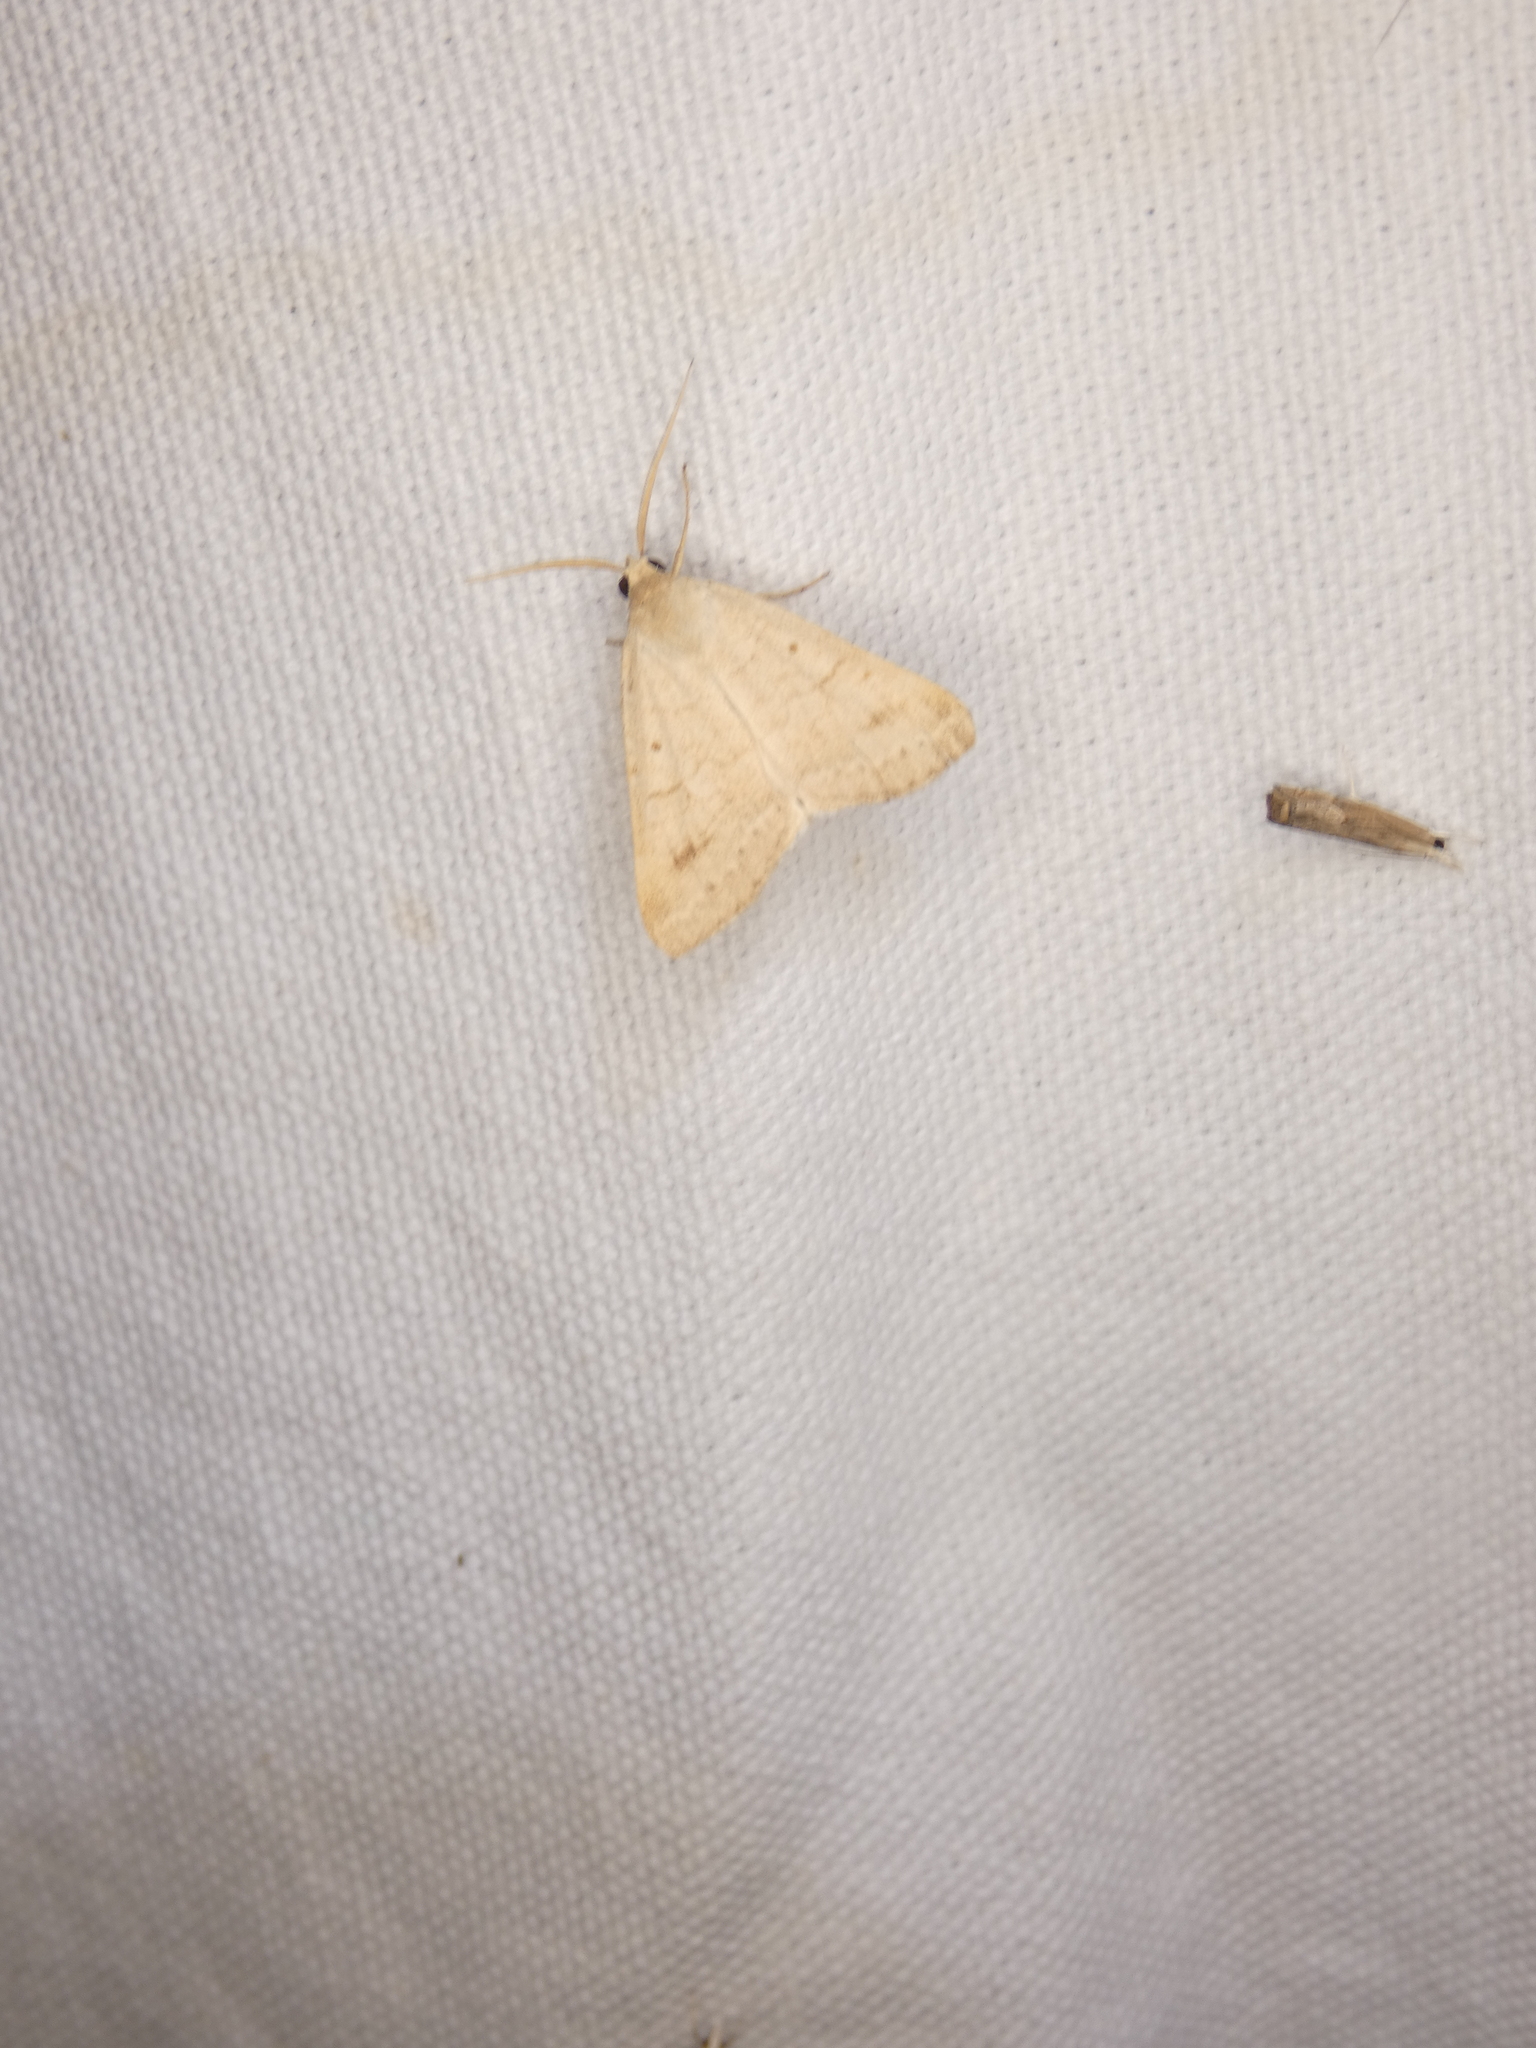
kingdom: Animalia
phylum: Arthropoda
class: Insecta
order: Lepidoptera
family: Erebidae
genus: Caenurgia
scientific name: Caenurgia chloropha
